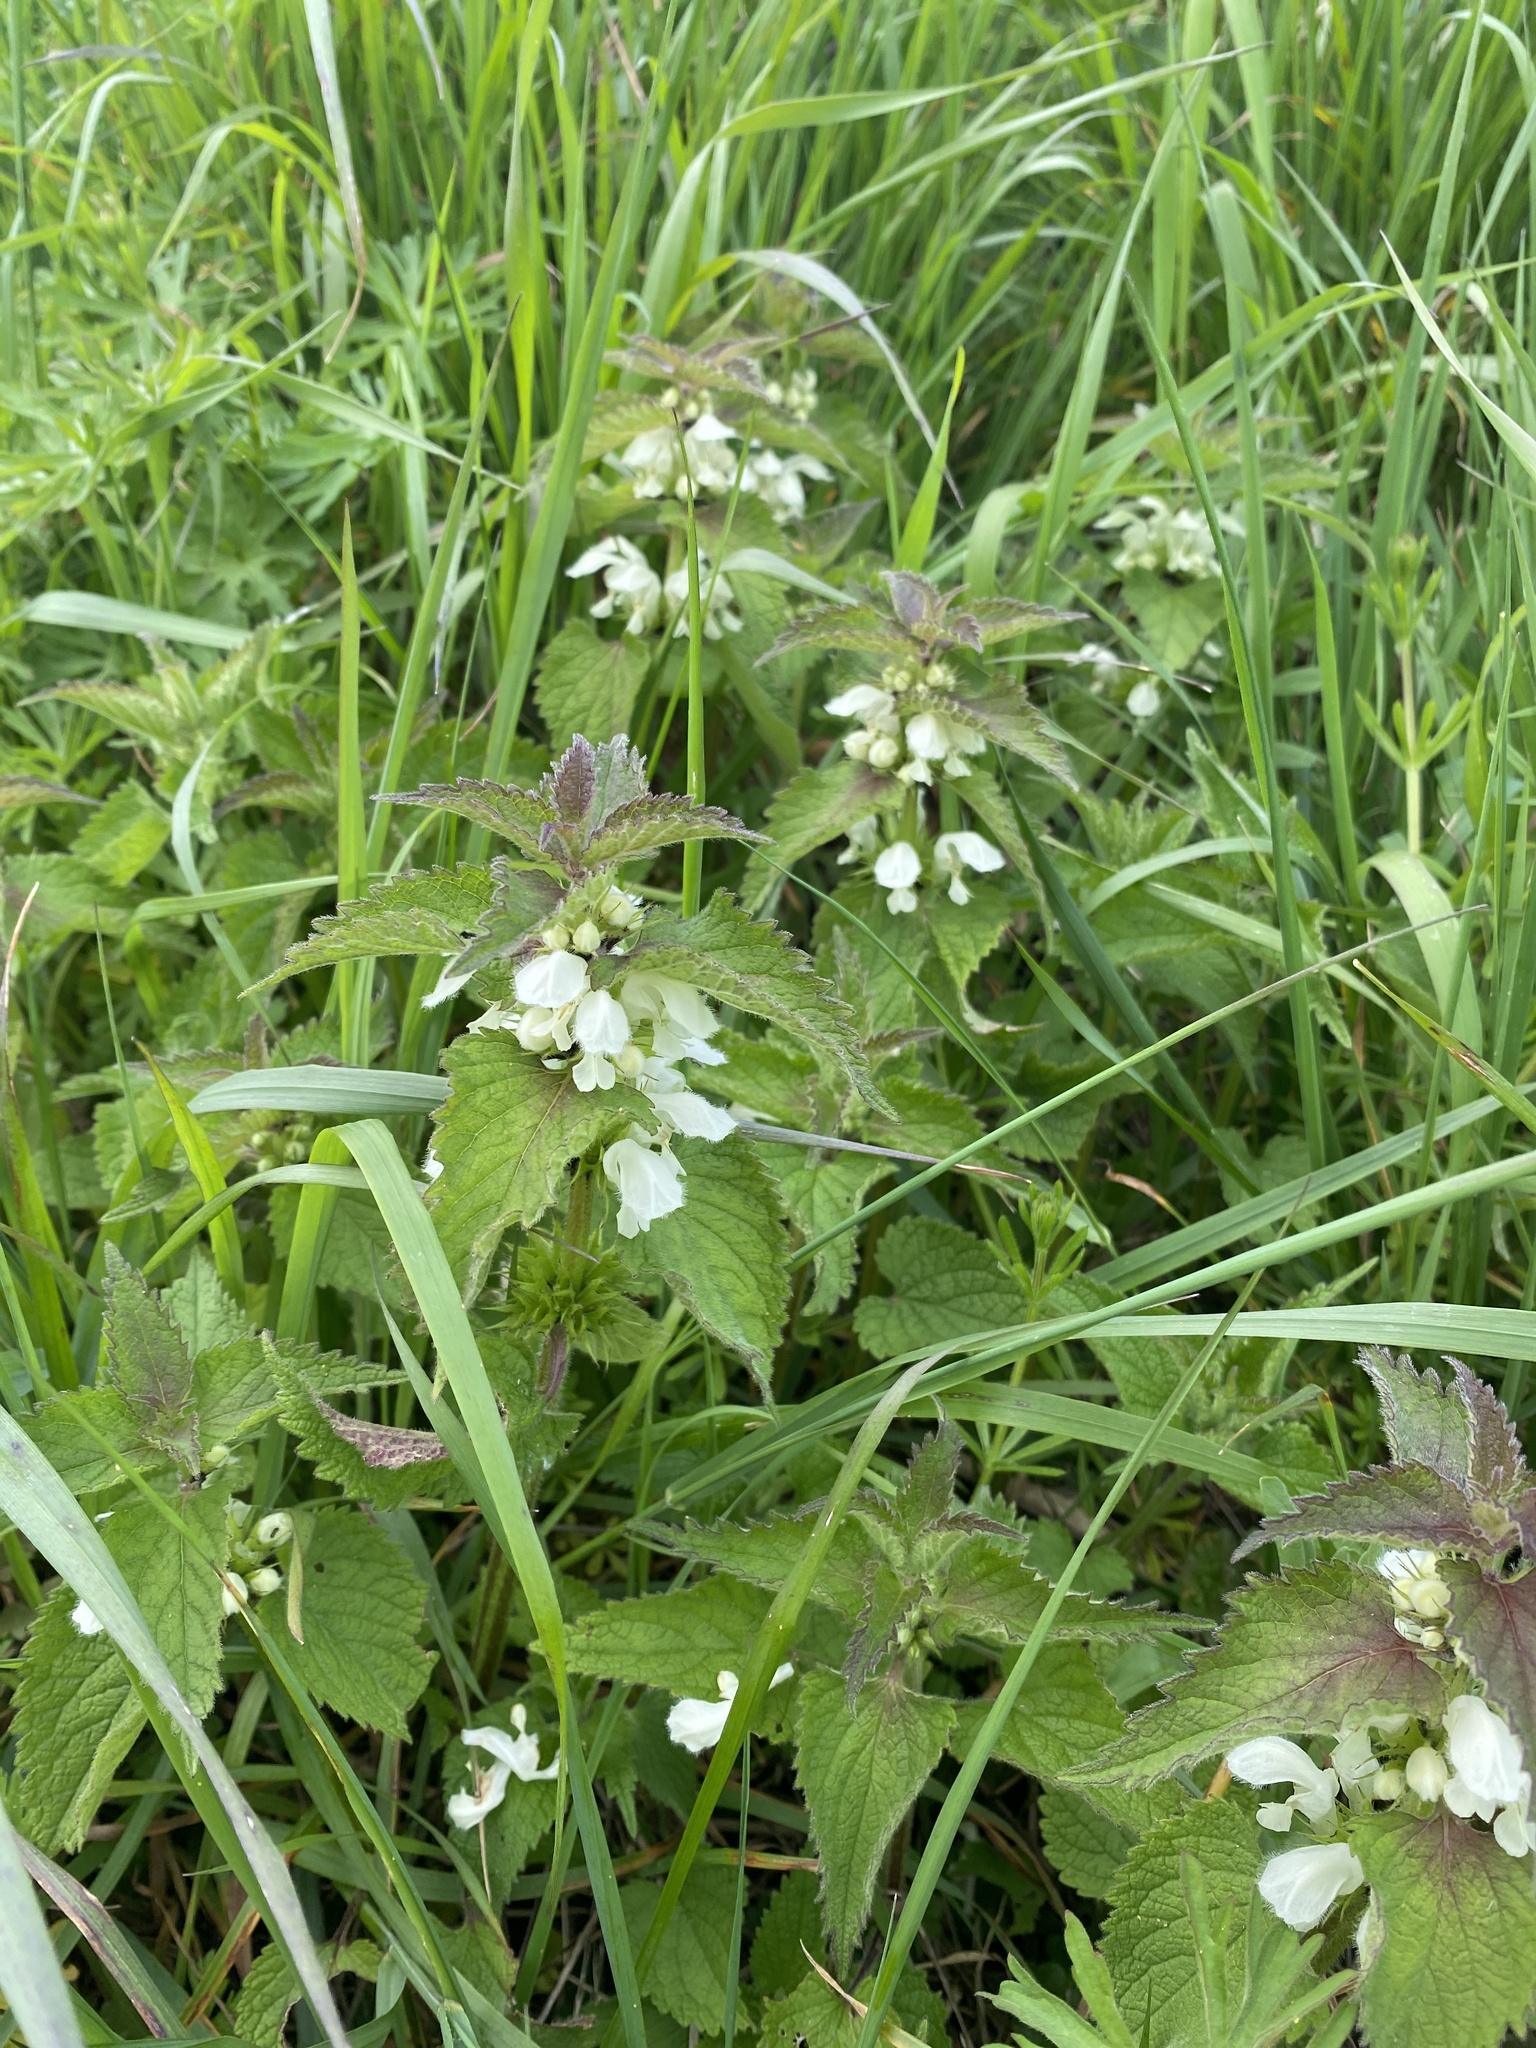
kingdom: Plantae
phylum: Tracheophyta
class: Magnoliopsida
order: Lamiales
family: Lamiaceae
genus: Lamium
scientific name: Lamium album
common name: White dead-nettle
